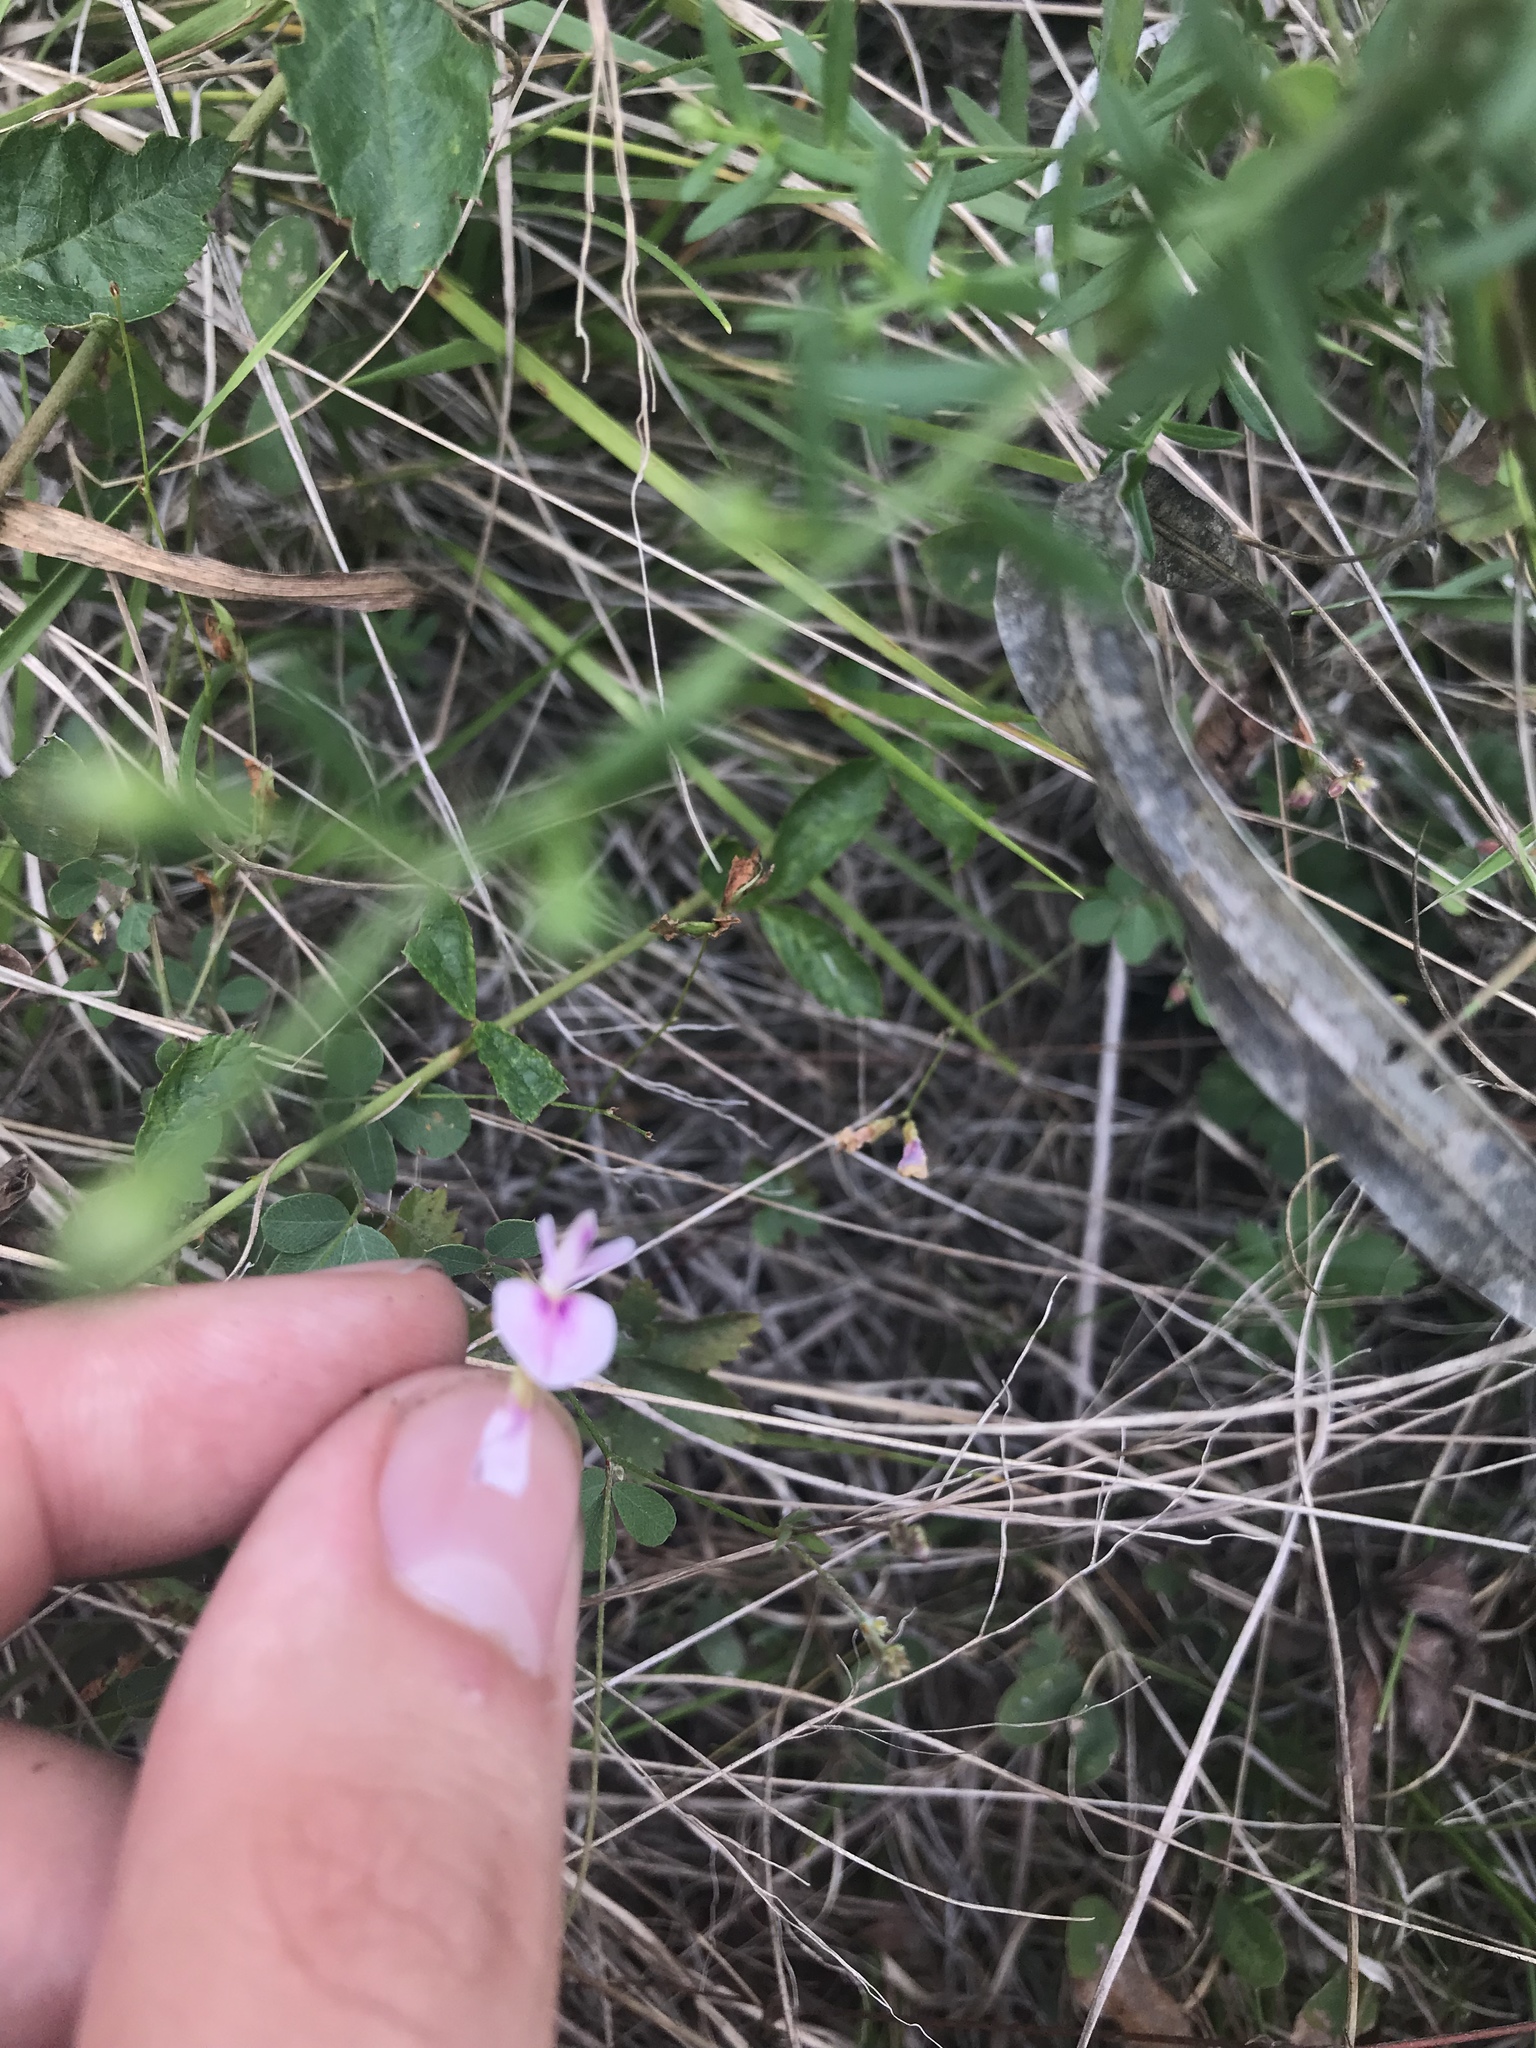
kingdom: Plantae
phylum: Tracheophyta
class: Magnoliopsida
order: Fabales
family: Fabaceae
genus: Lespedeza
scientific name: Lespedeza repens
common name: Creeping bush-clover
